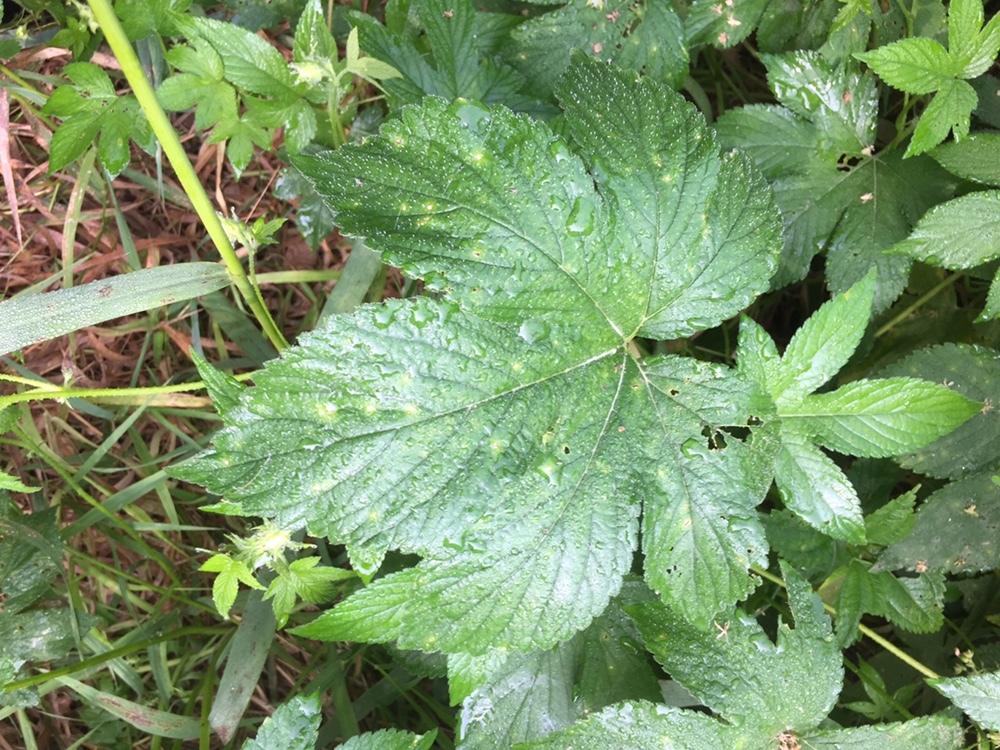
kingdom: Plantae
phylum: Tracheophyta
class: Magnoliopsida
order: Rosales
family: Cannabaceae
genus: Humulus
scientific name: Humulus scandens
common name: Japanese hop
